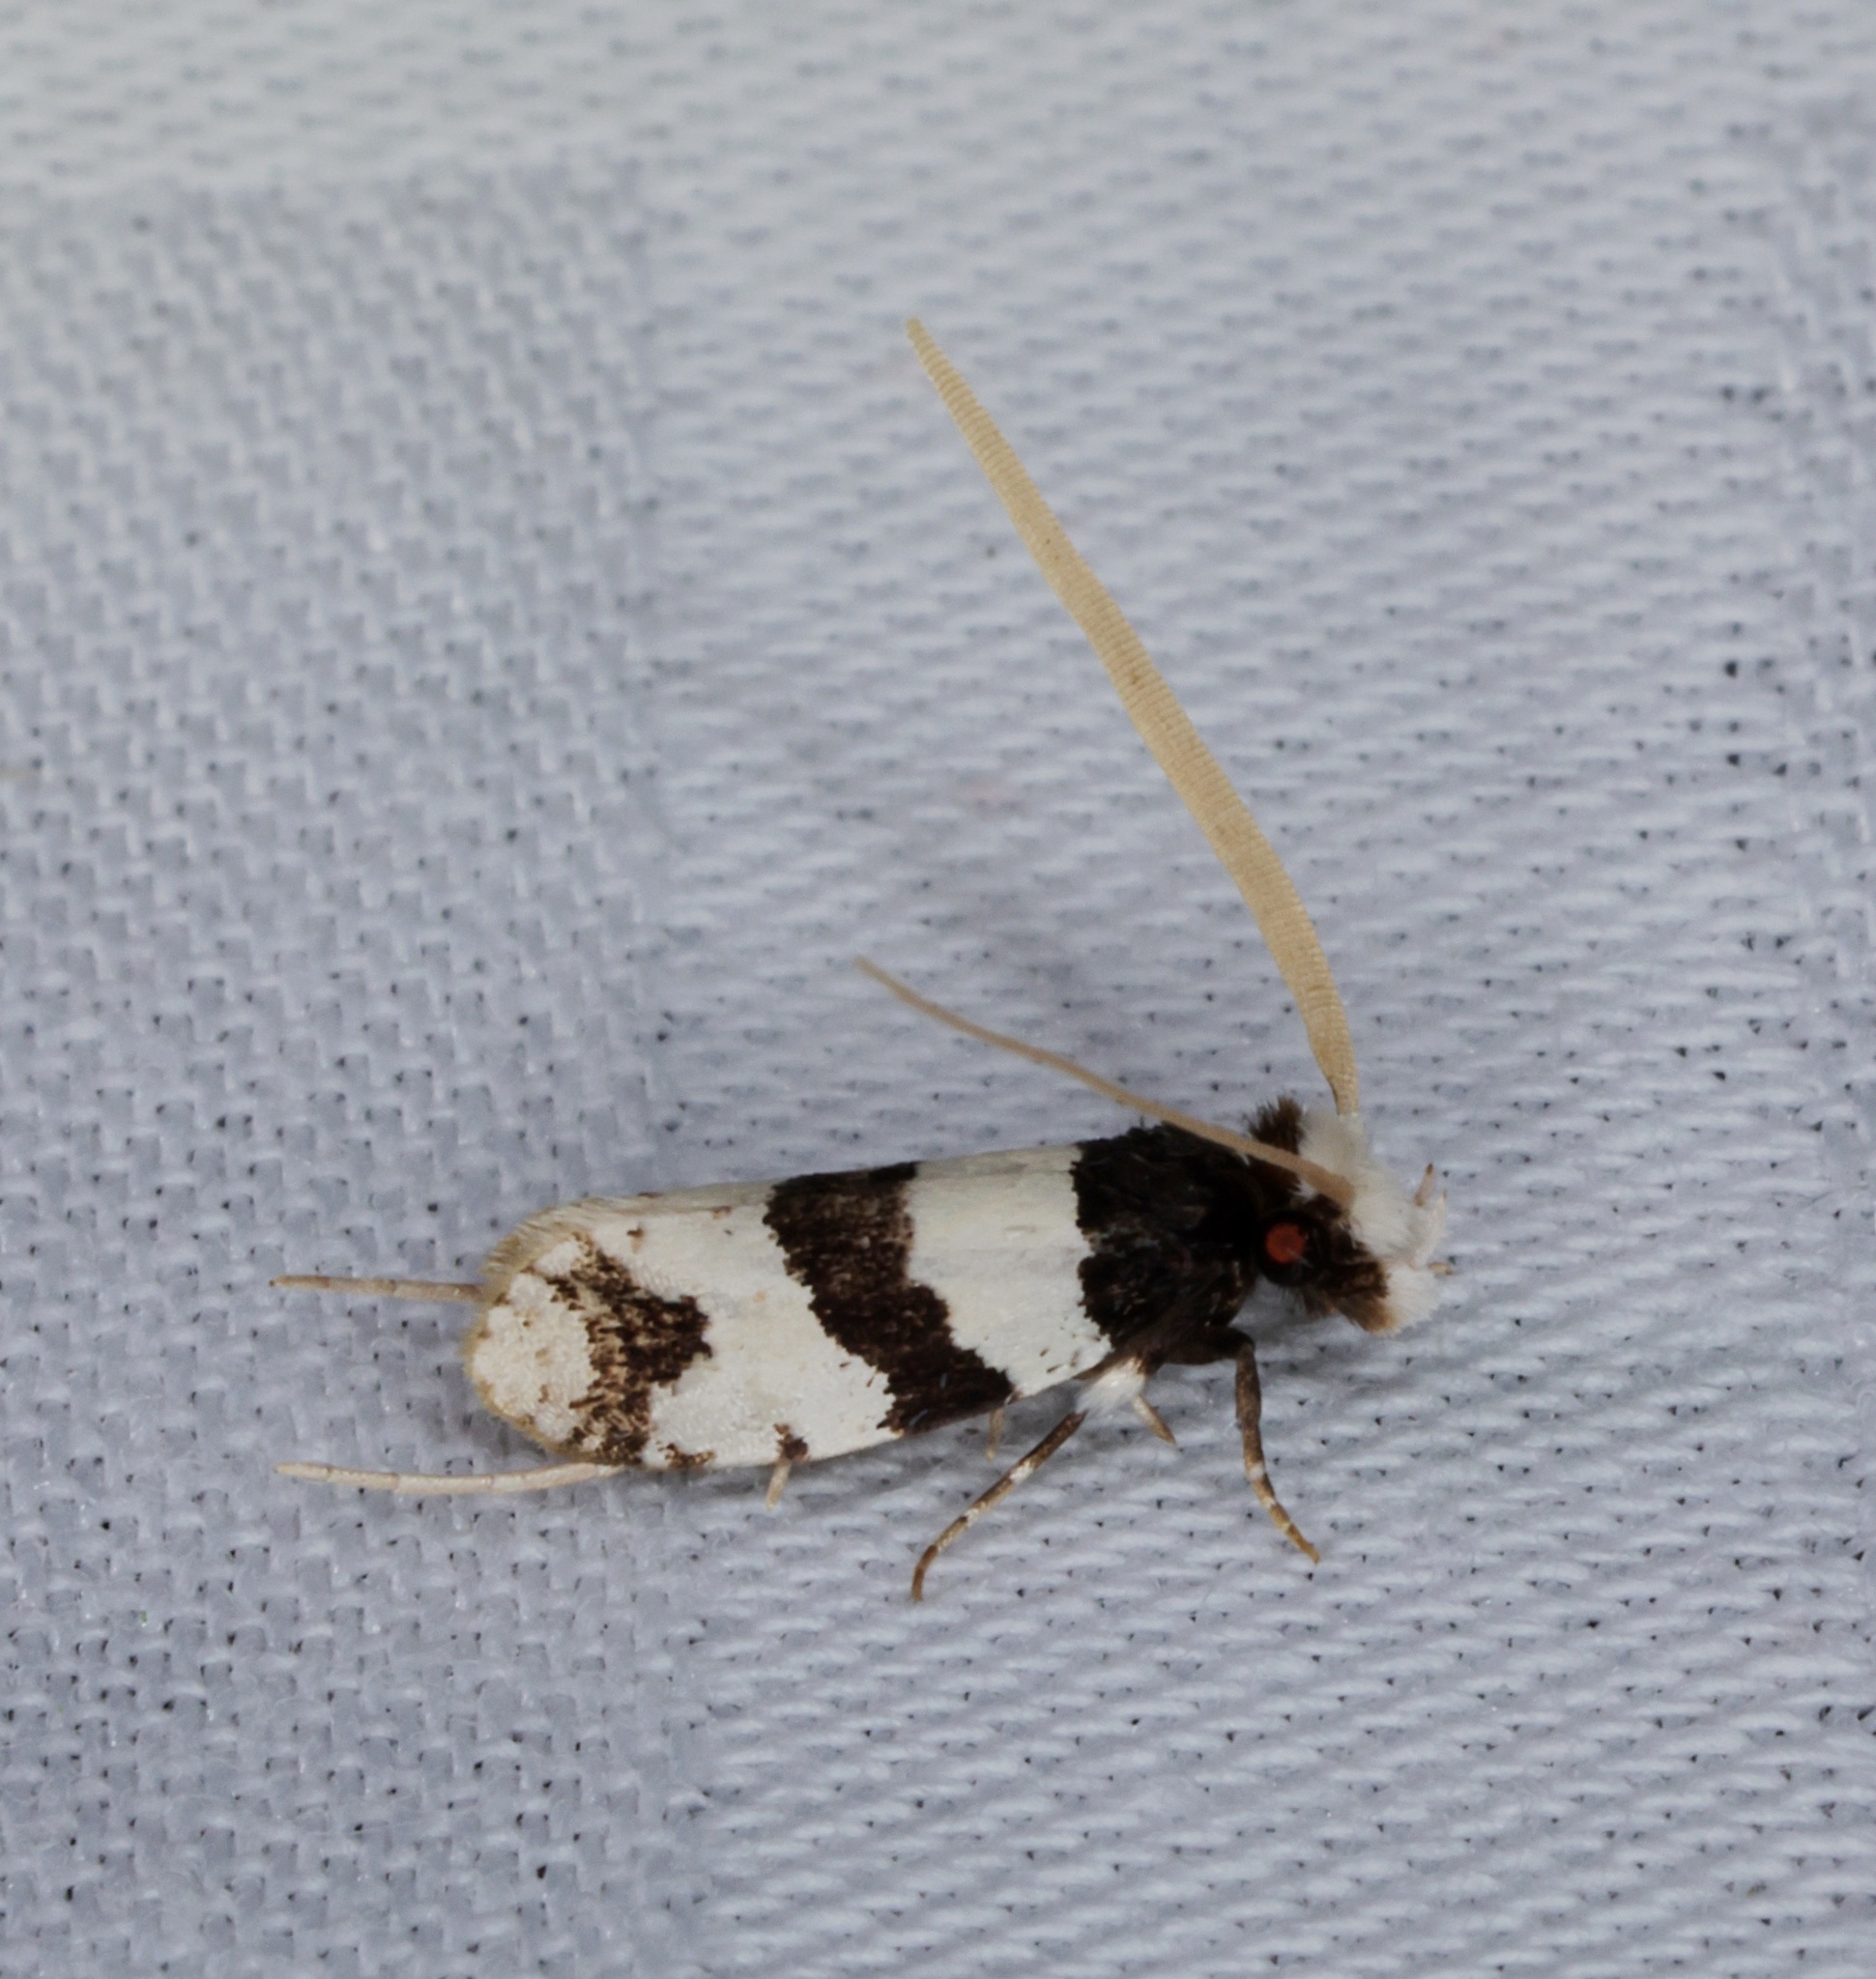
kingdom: Animalia
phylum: Arthropoda
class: Insecta
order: Lepidoptera
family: Tineidae
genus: Thisizima
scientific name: Thisizima fasciaria
